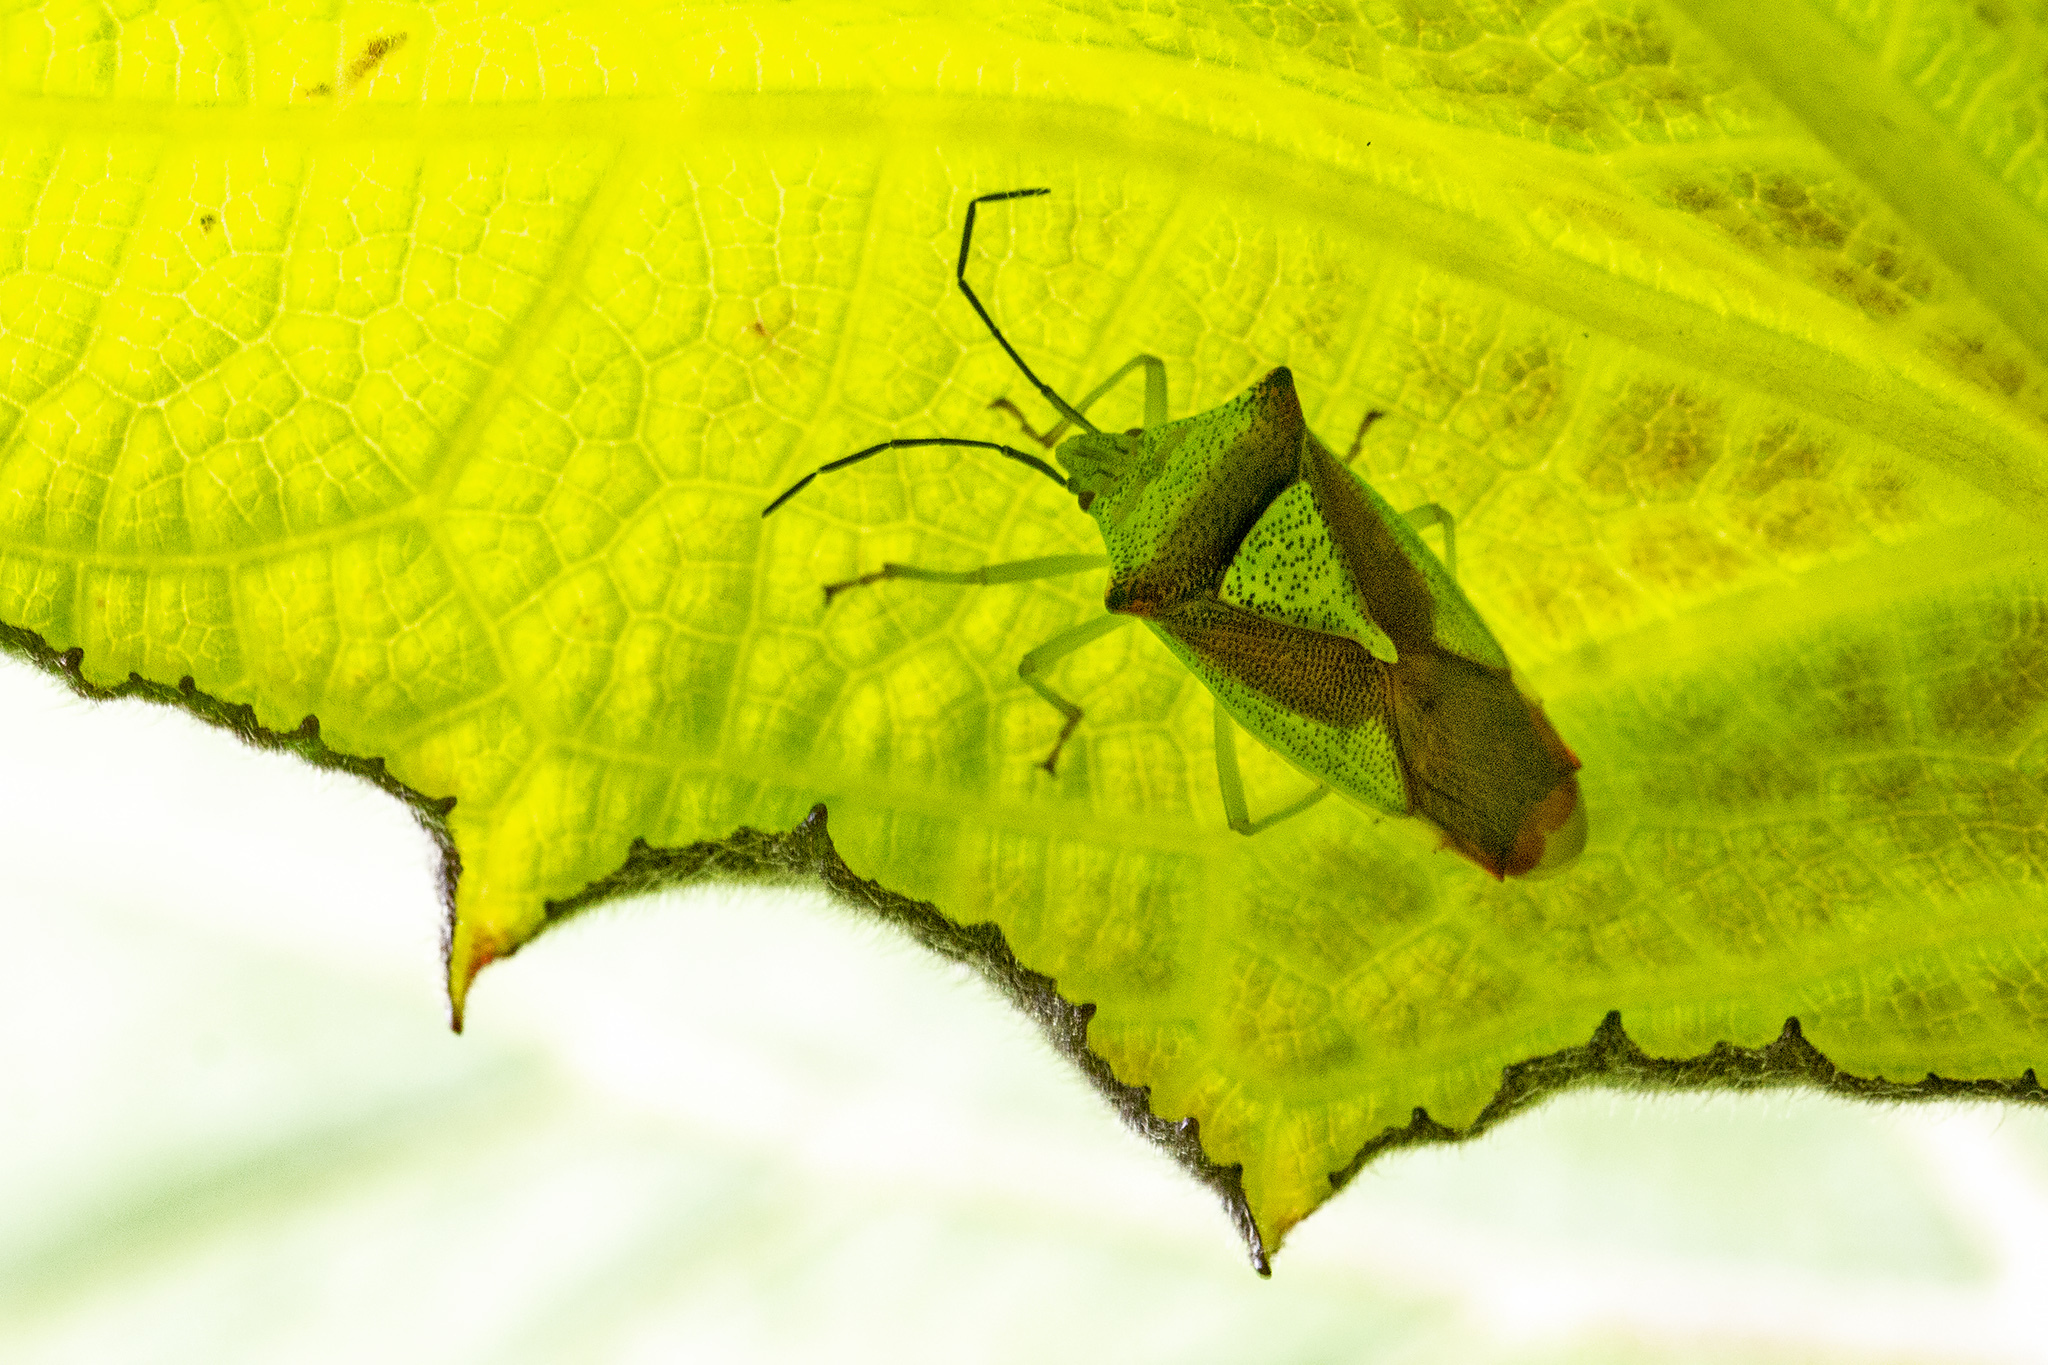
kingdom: Animalia
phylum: Arthropoda
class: Insecta
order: Hemiptera
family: Acanthosomatidae
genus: Acanthosoma
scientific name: Acanthosoma haemorrhoidale
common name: Hawthorn shieldbug
